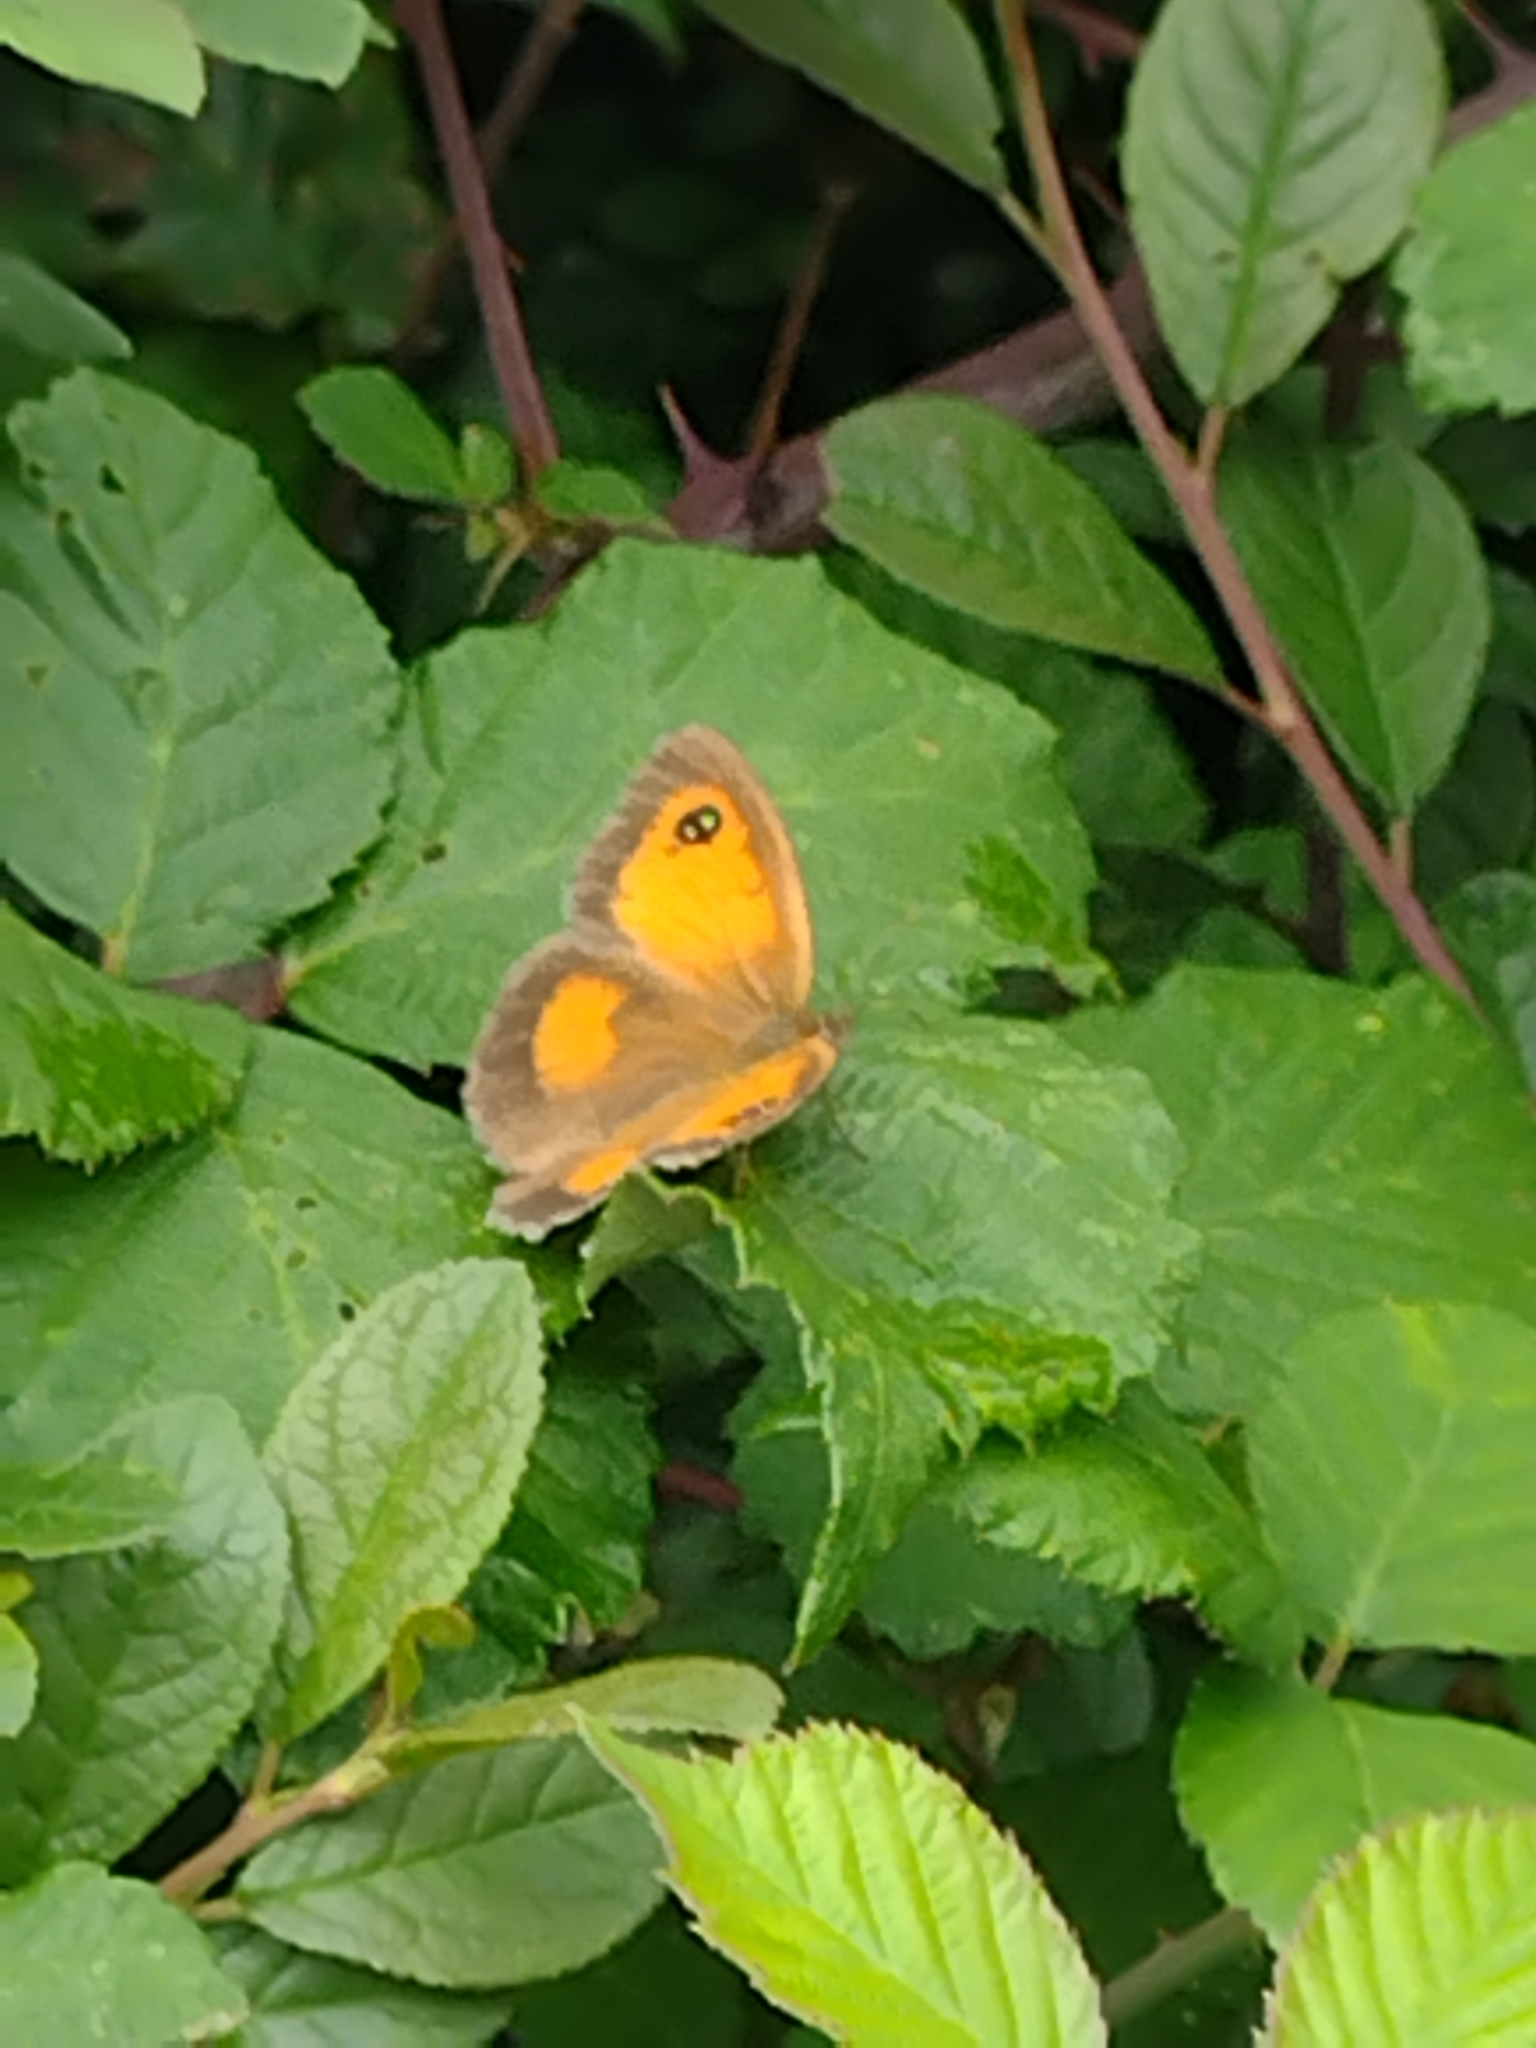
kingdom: Animalia
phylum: Arthropoda
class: Insecta
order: Lepidoptera
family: Nymphalidae
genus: Pyronia
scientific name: Pyronia tithonus
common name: Gatekeeper
